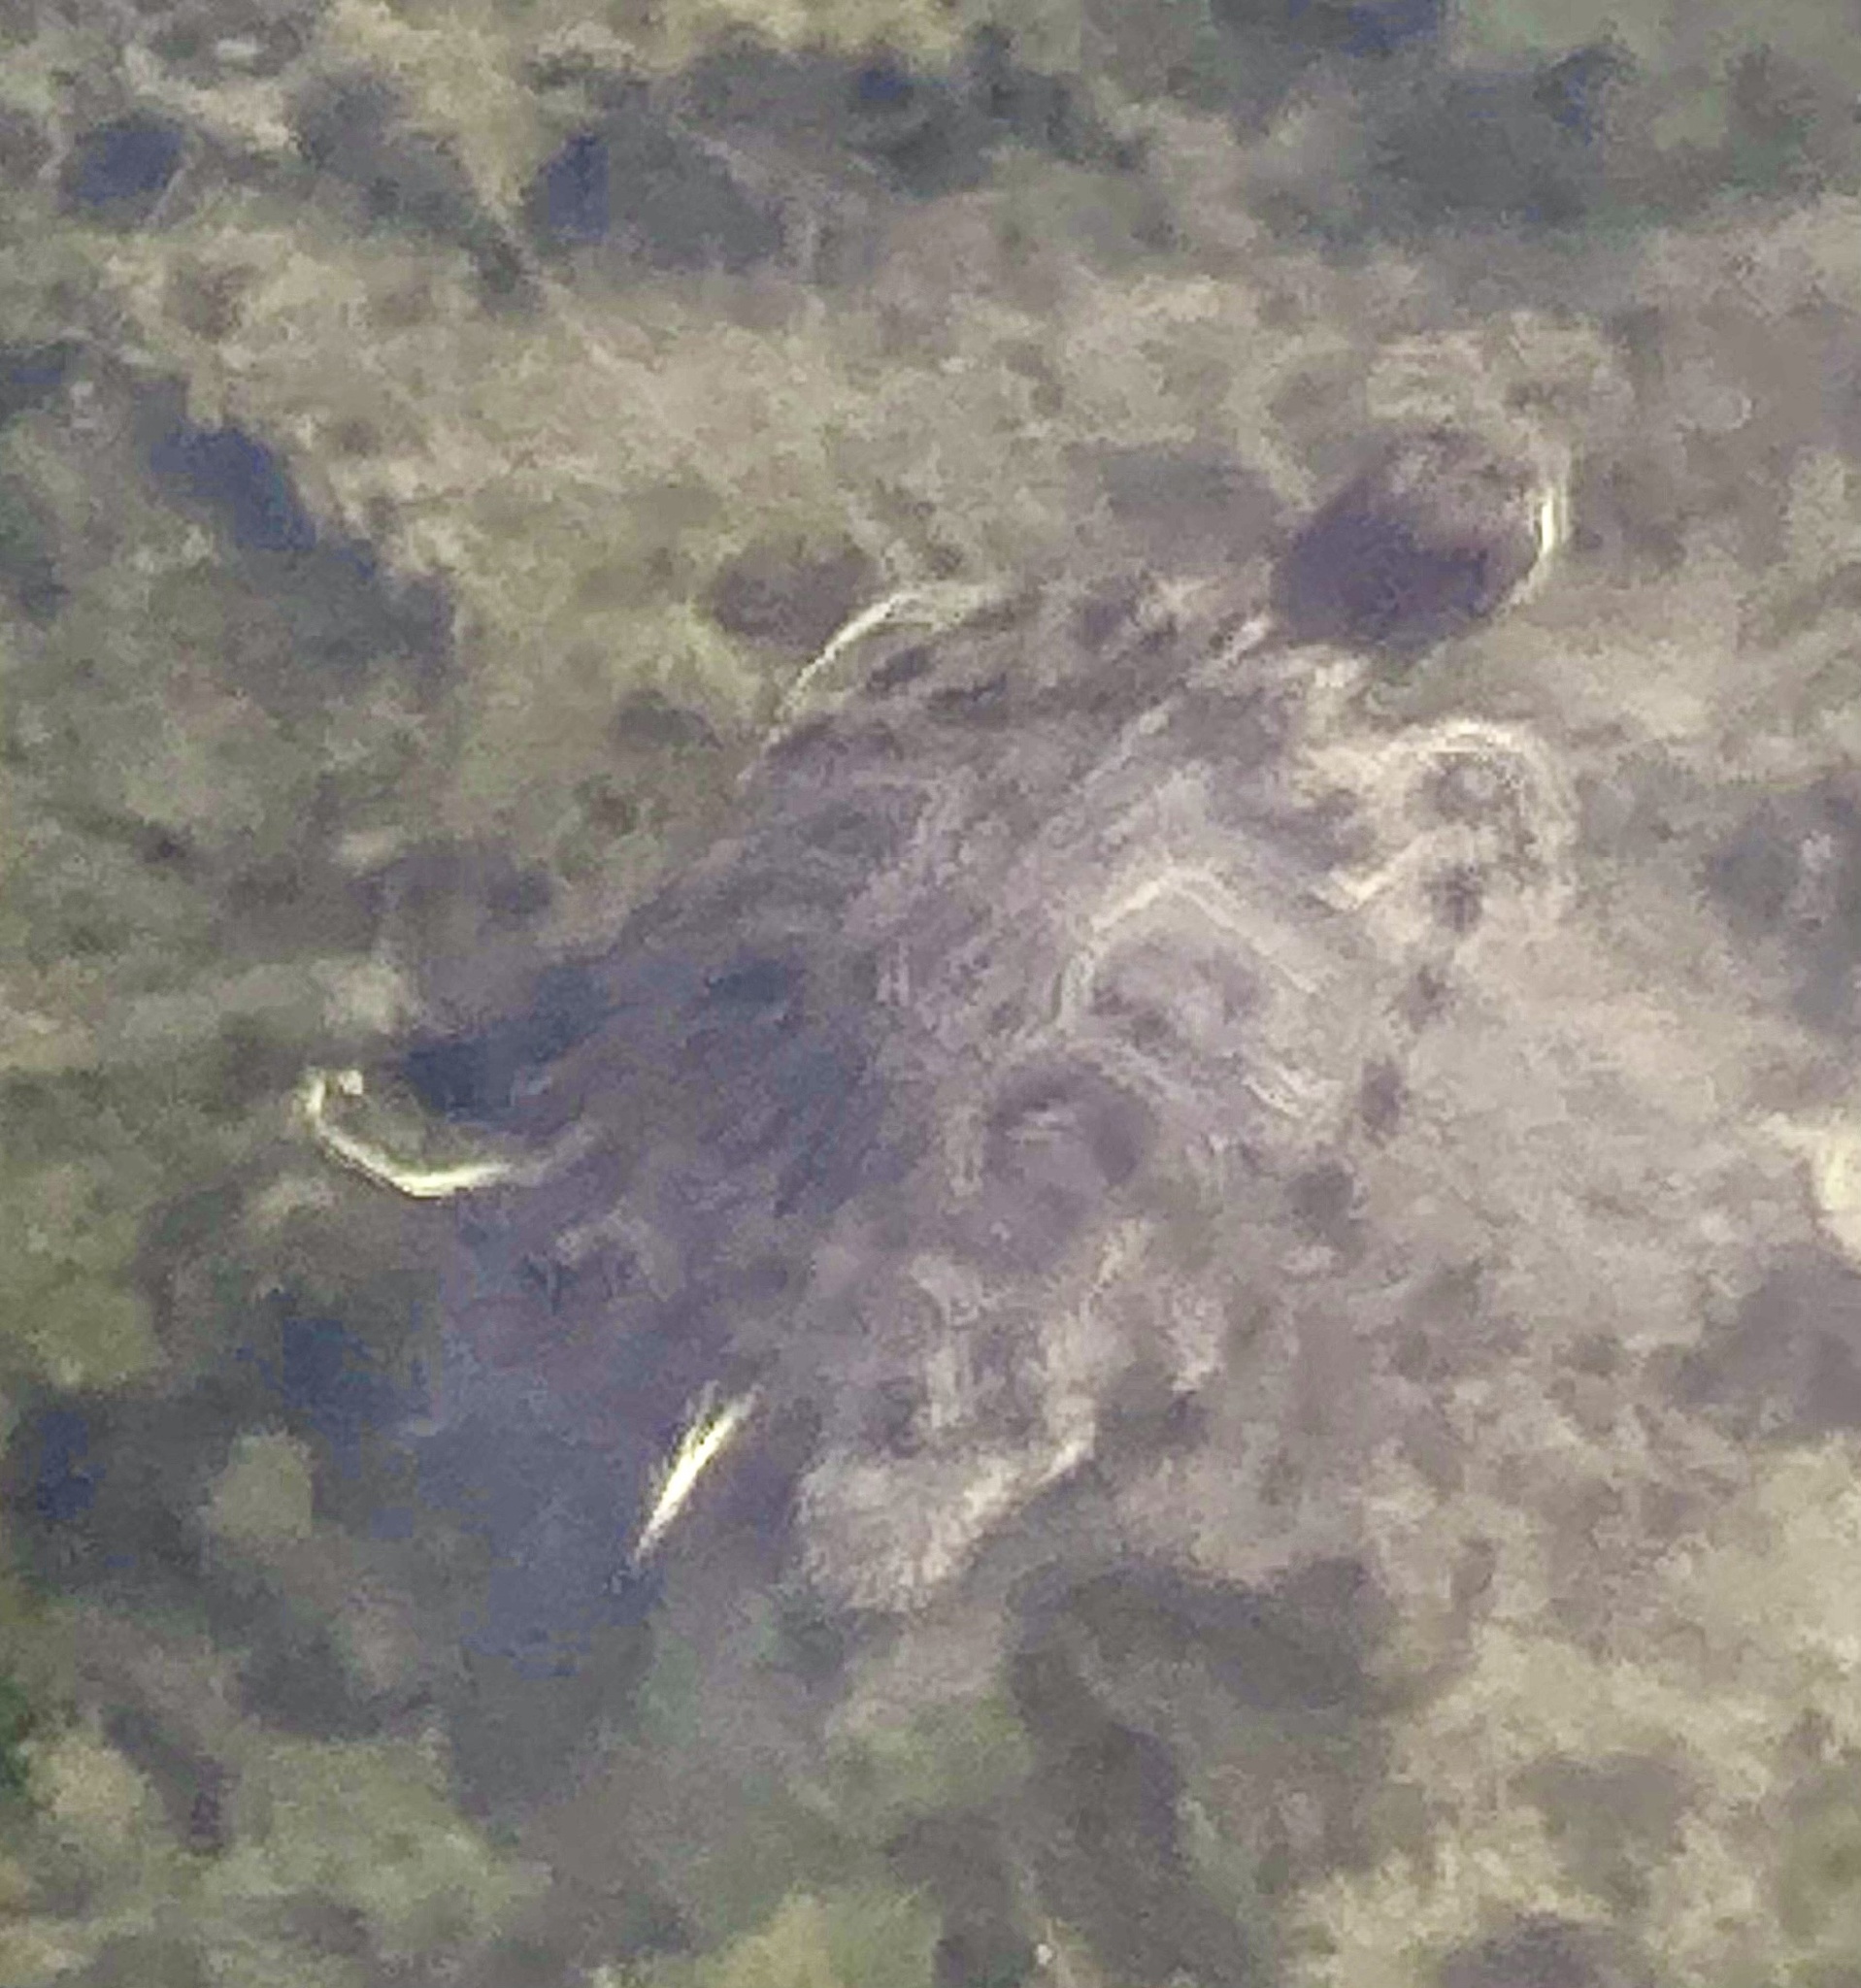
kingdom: Animalia
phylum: Chordata
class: Testudines
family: Emydidae
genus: Trachemys
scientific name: Trachemys scripta
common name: Slider
